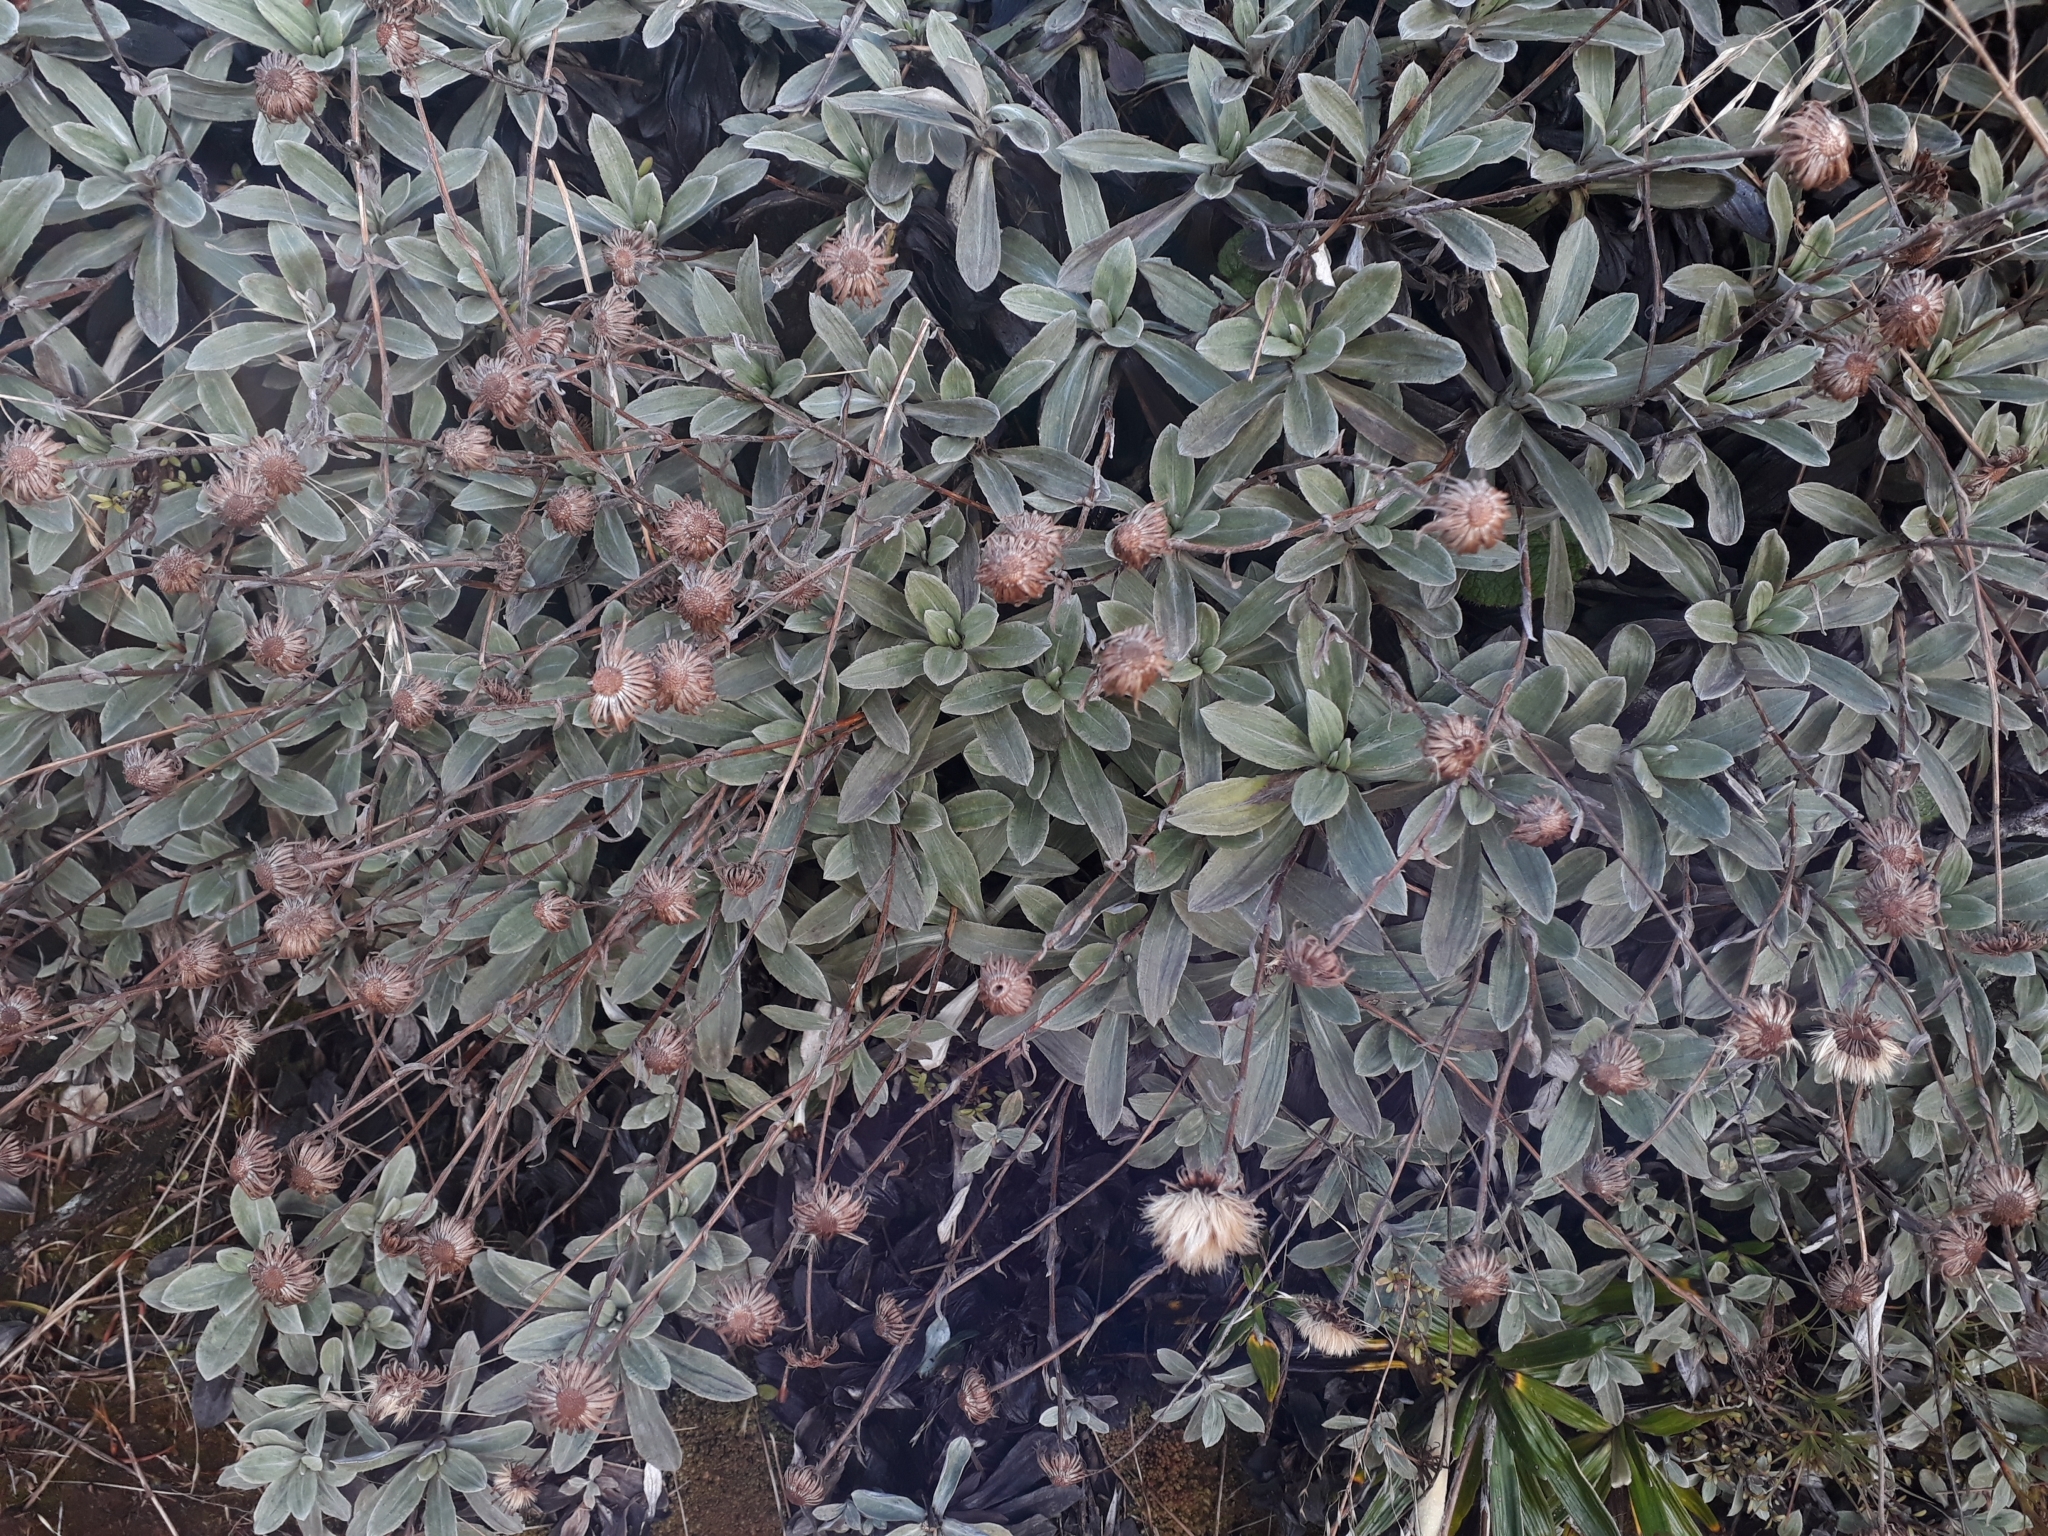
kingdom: Plantae
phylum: Tracheophyta
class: Magnoliopsida
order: Asterales
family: Asteraceae
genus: Celmisia
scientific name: Celmisia incana
